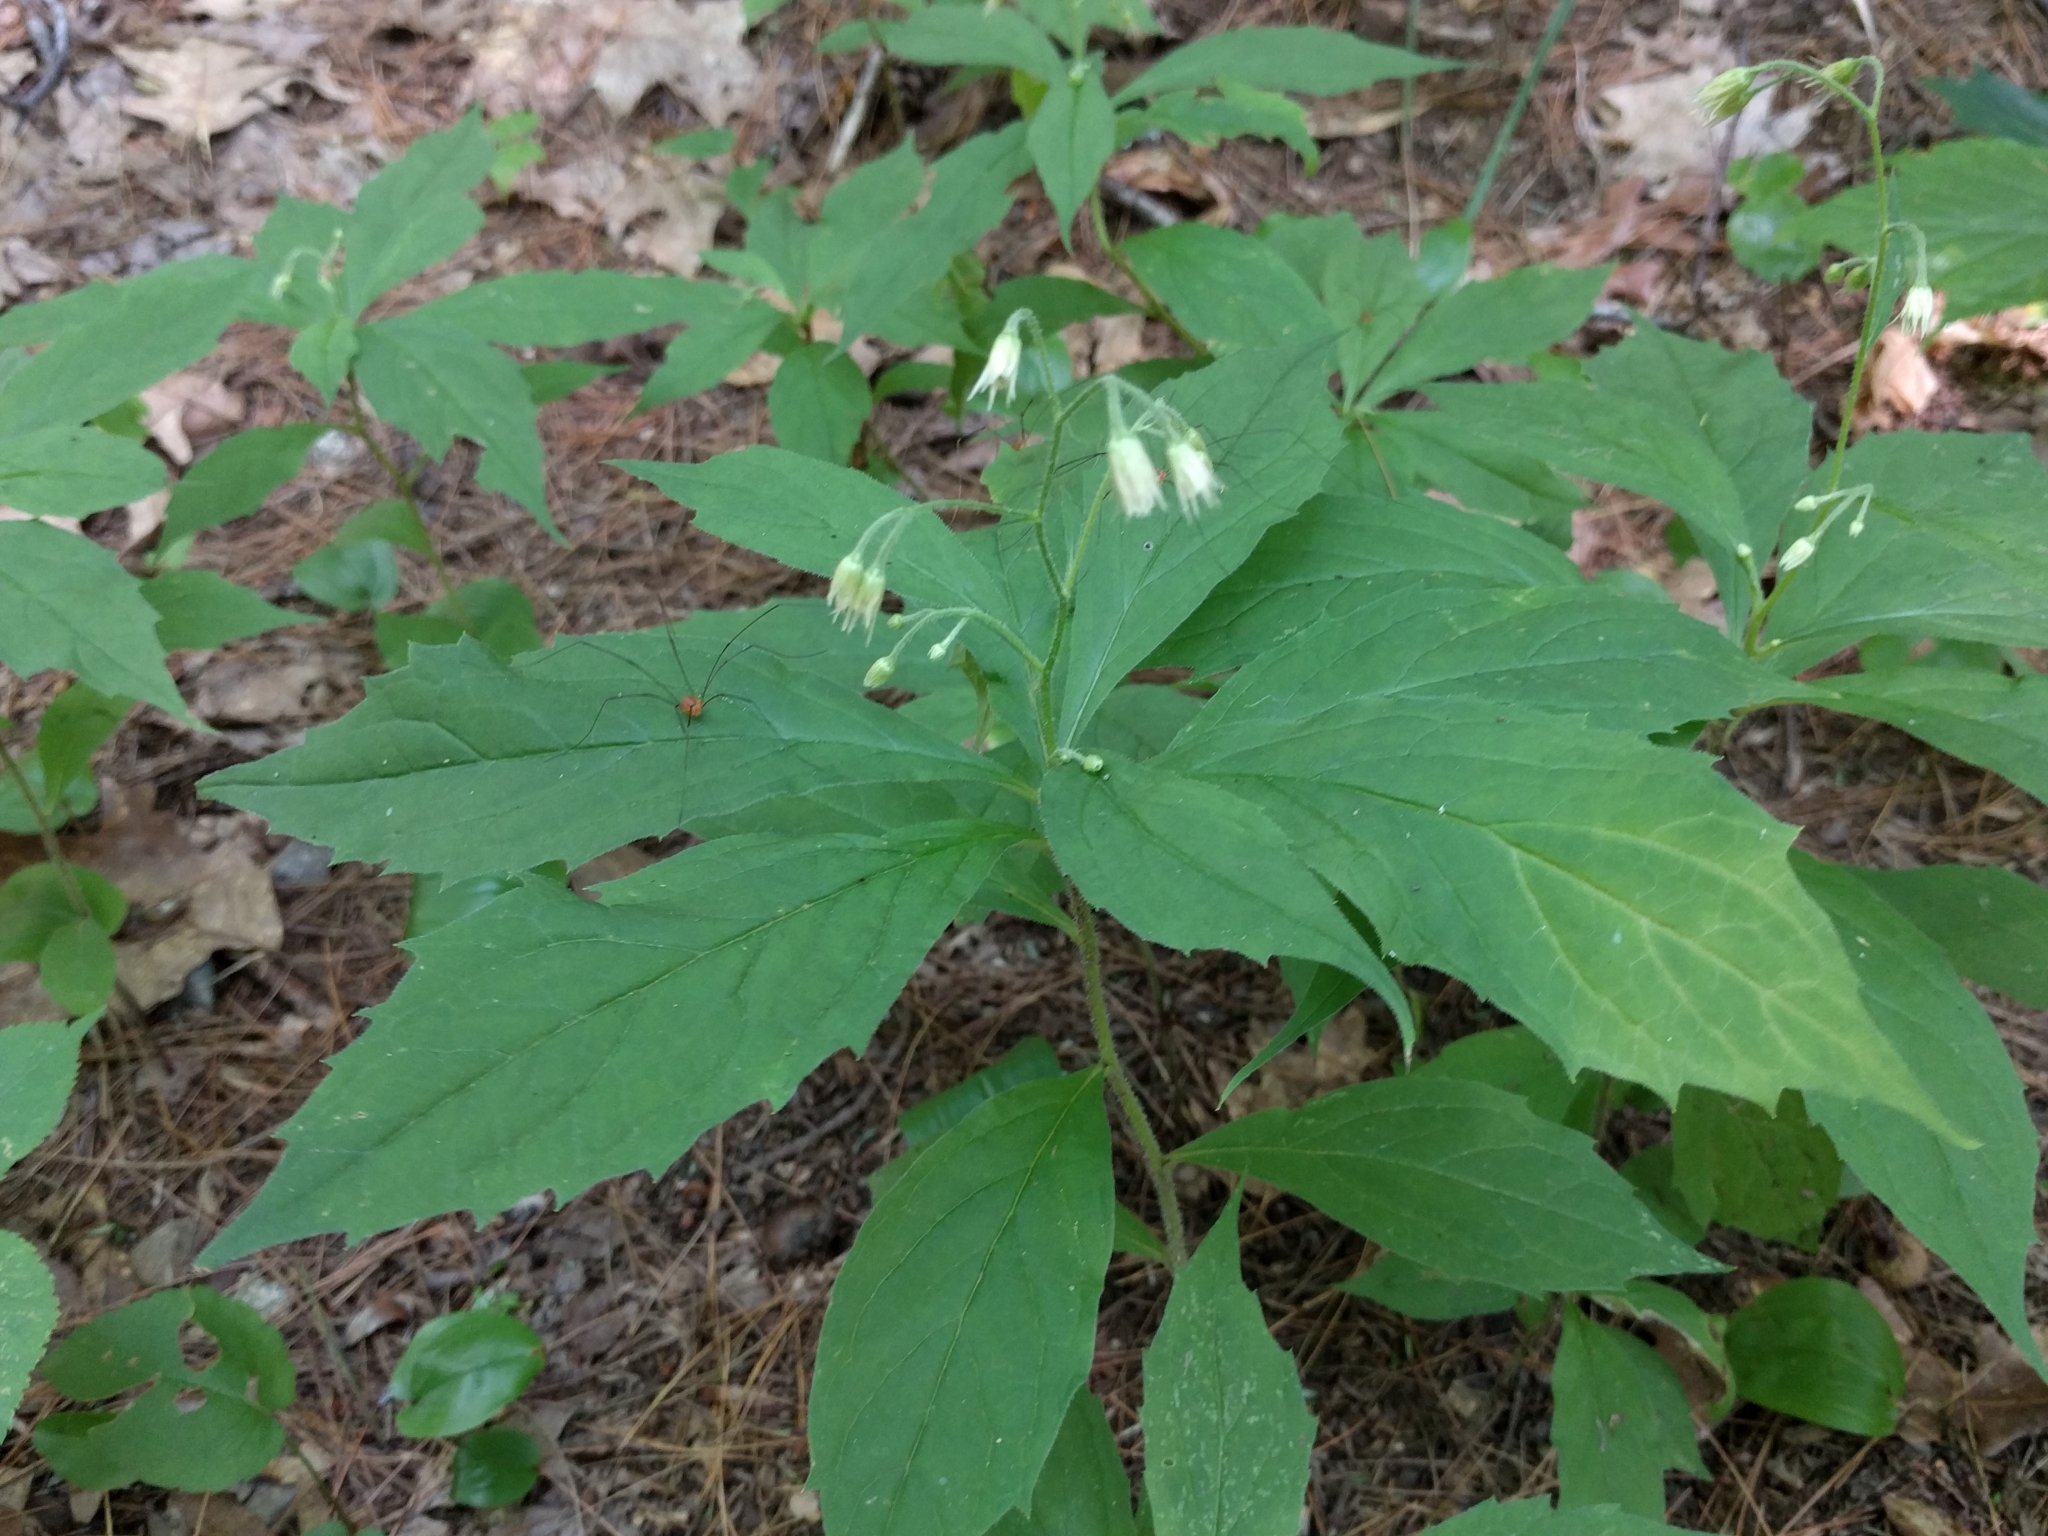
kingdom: Plantae
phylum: Tracheophyta
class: Magnoliopsida
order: Asterales
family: Asteraceae
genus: Oclemena
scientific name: Oclemena acuminata
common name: Mountain aster
